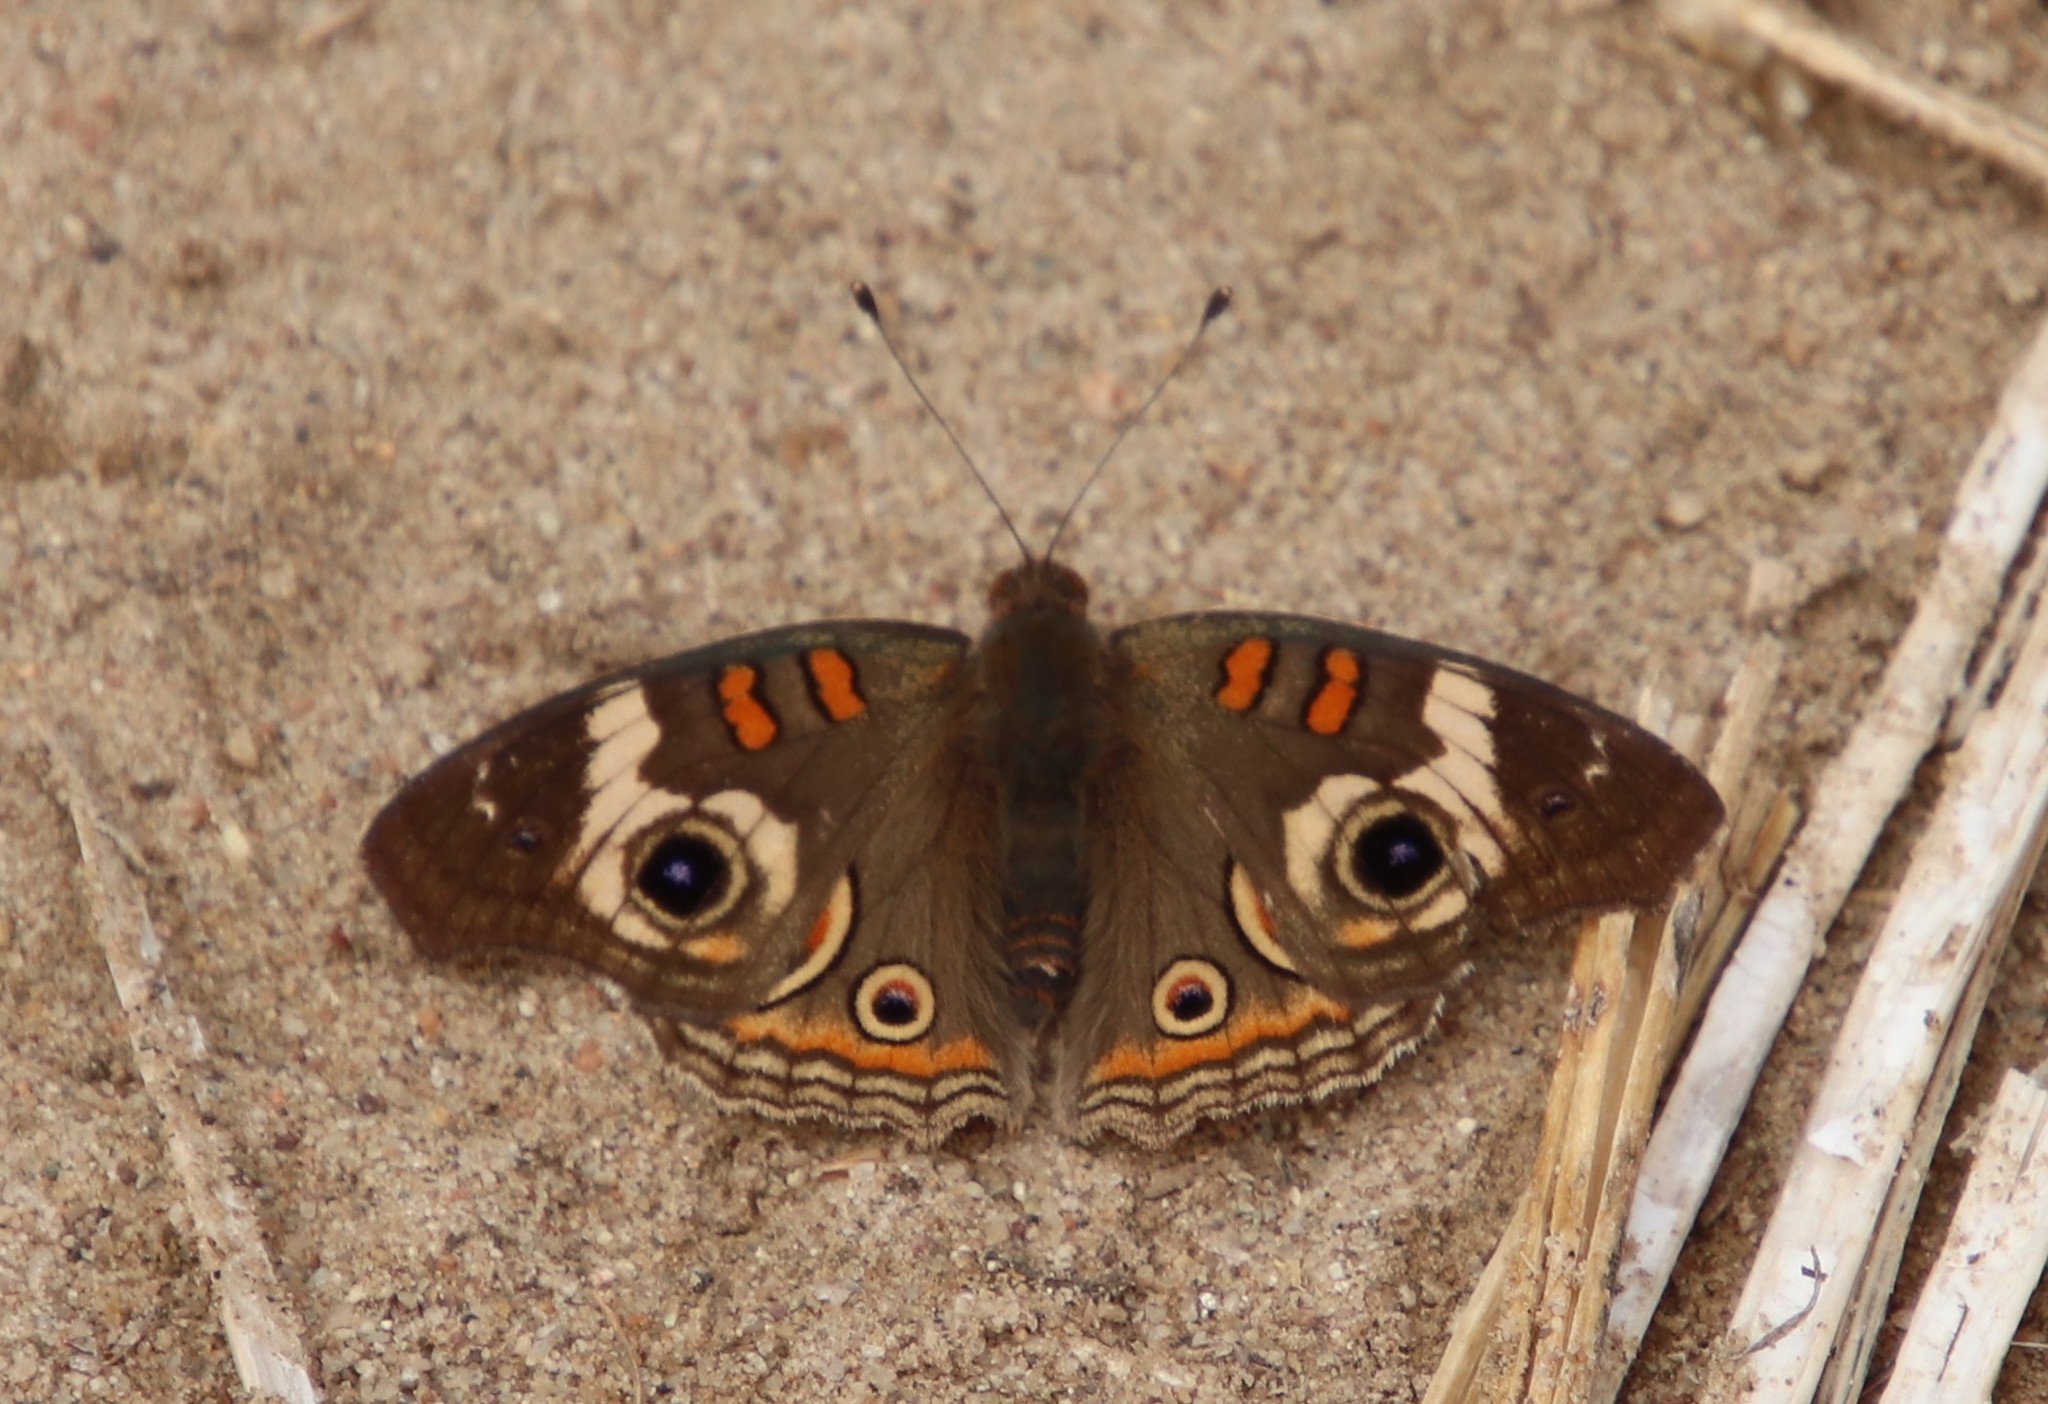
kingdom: Animalia
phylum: Arthropoda
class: Insecta
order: Lepidoptera
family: Nymphalidae
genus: Junonia
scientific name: Junonia grisea
